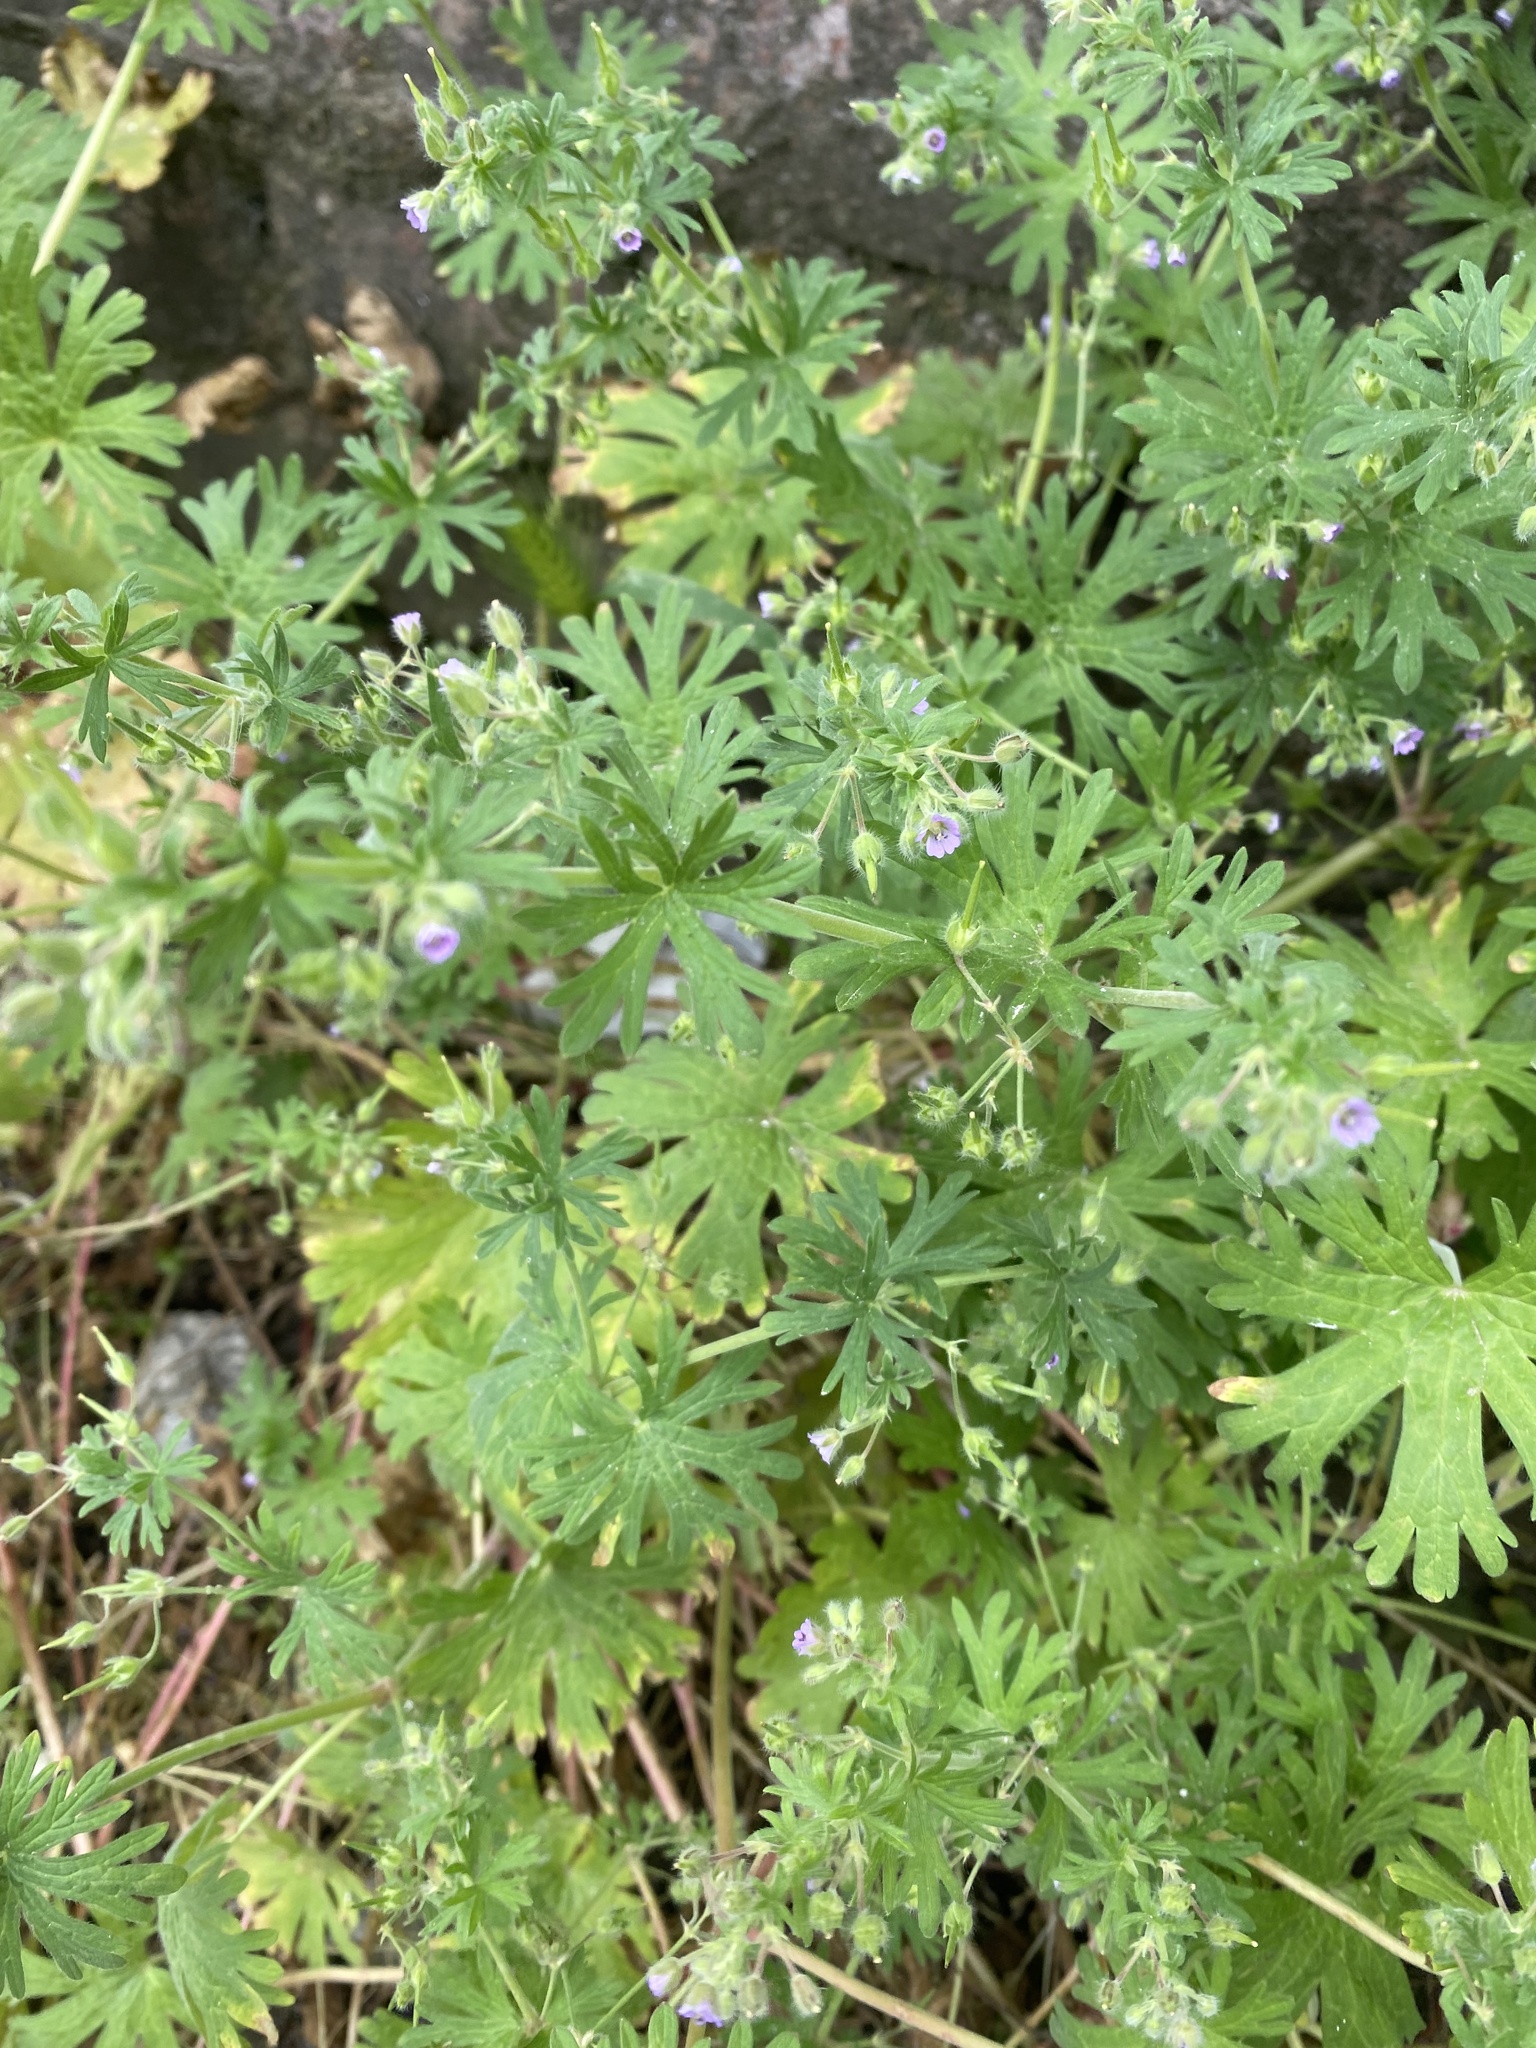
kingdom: Plantae
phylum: Tracheophyta
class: Magnoliopsida
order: Geraniales
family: Geraniaceae
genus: Geranium
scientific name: Geranium pusillum
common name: Small geranium
